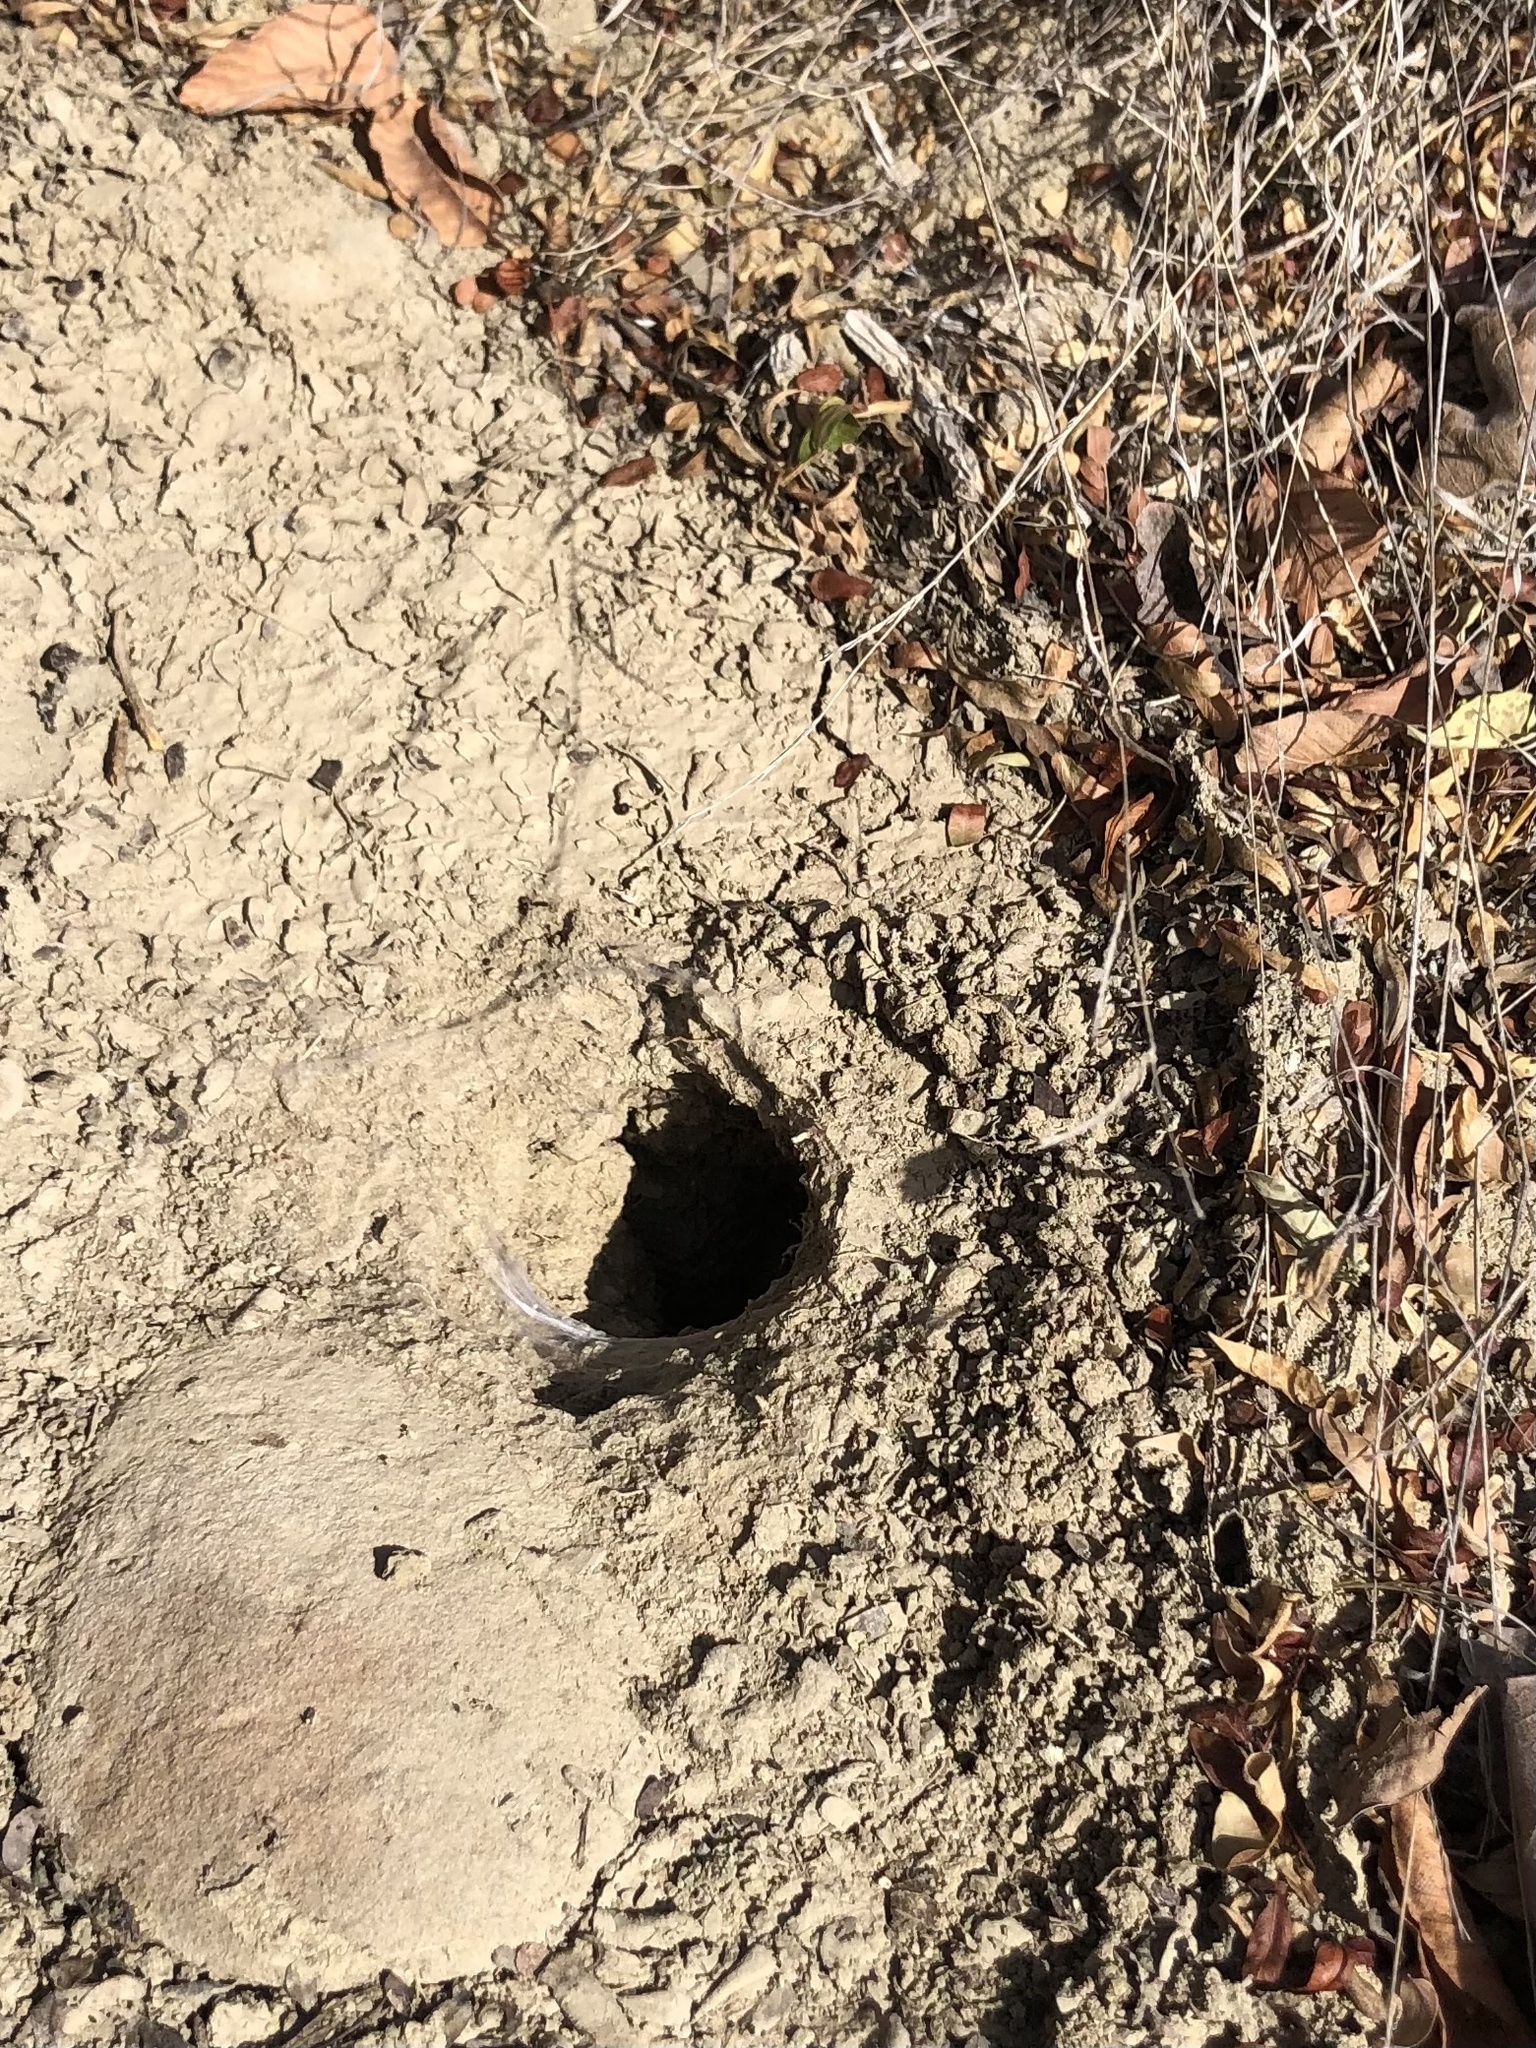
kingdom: Animalia
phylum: Arthropoda
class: Arachnida
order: Araneae
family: Theraphosidae
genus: Aphonopelma
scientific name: Aphonopelma anax
